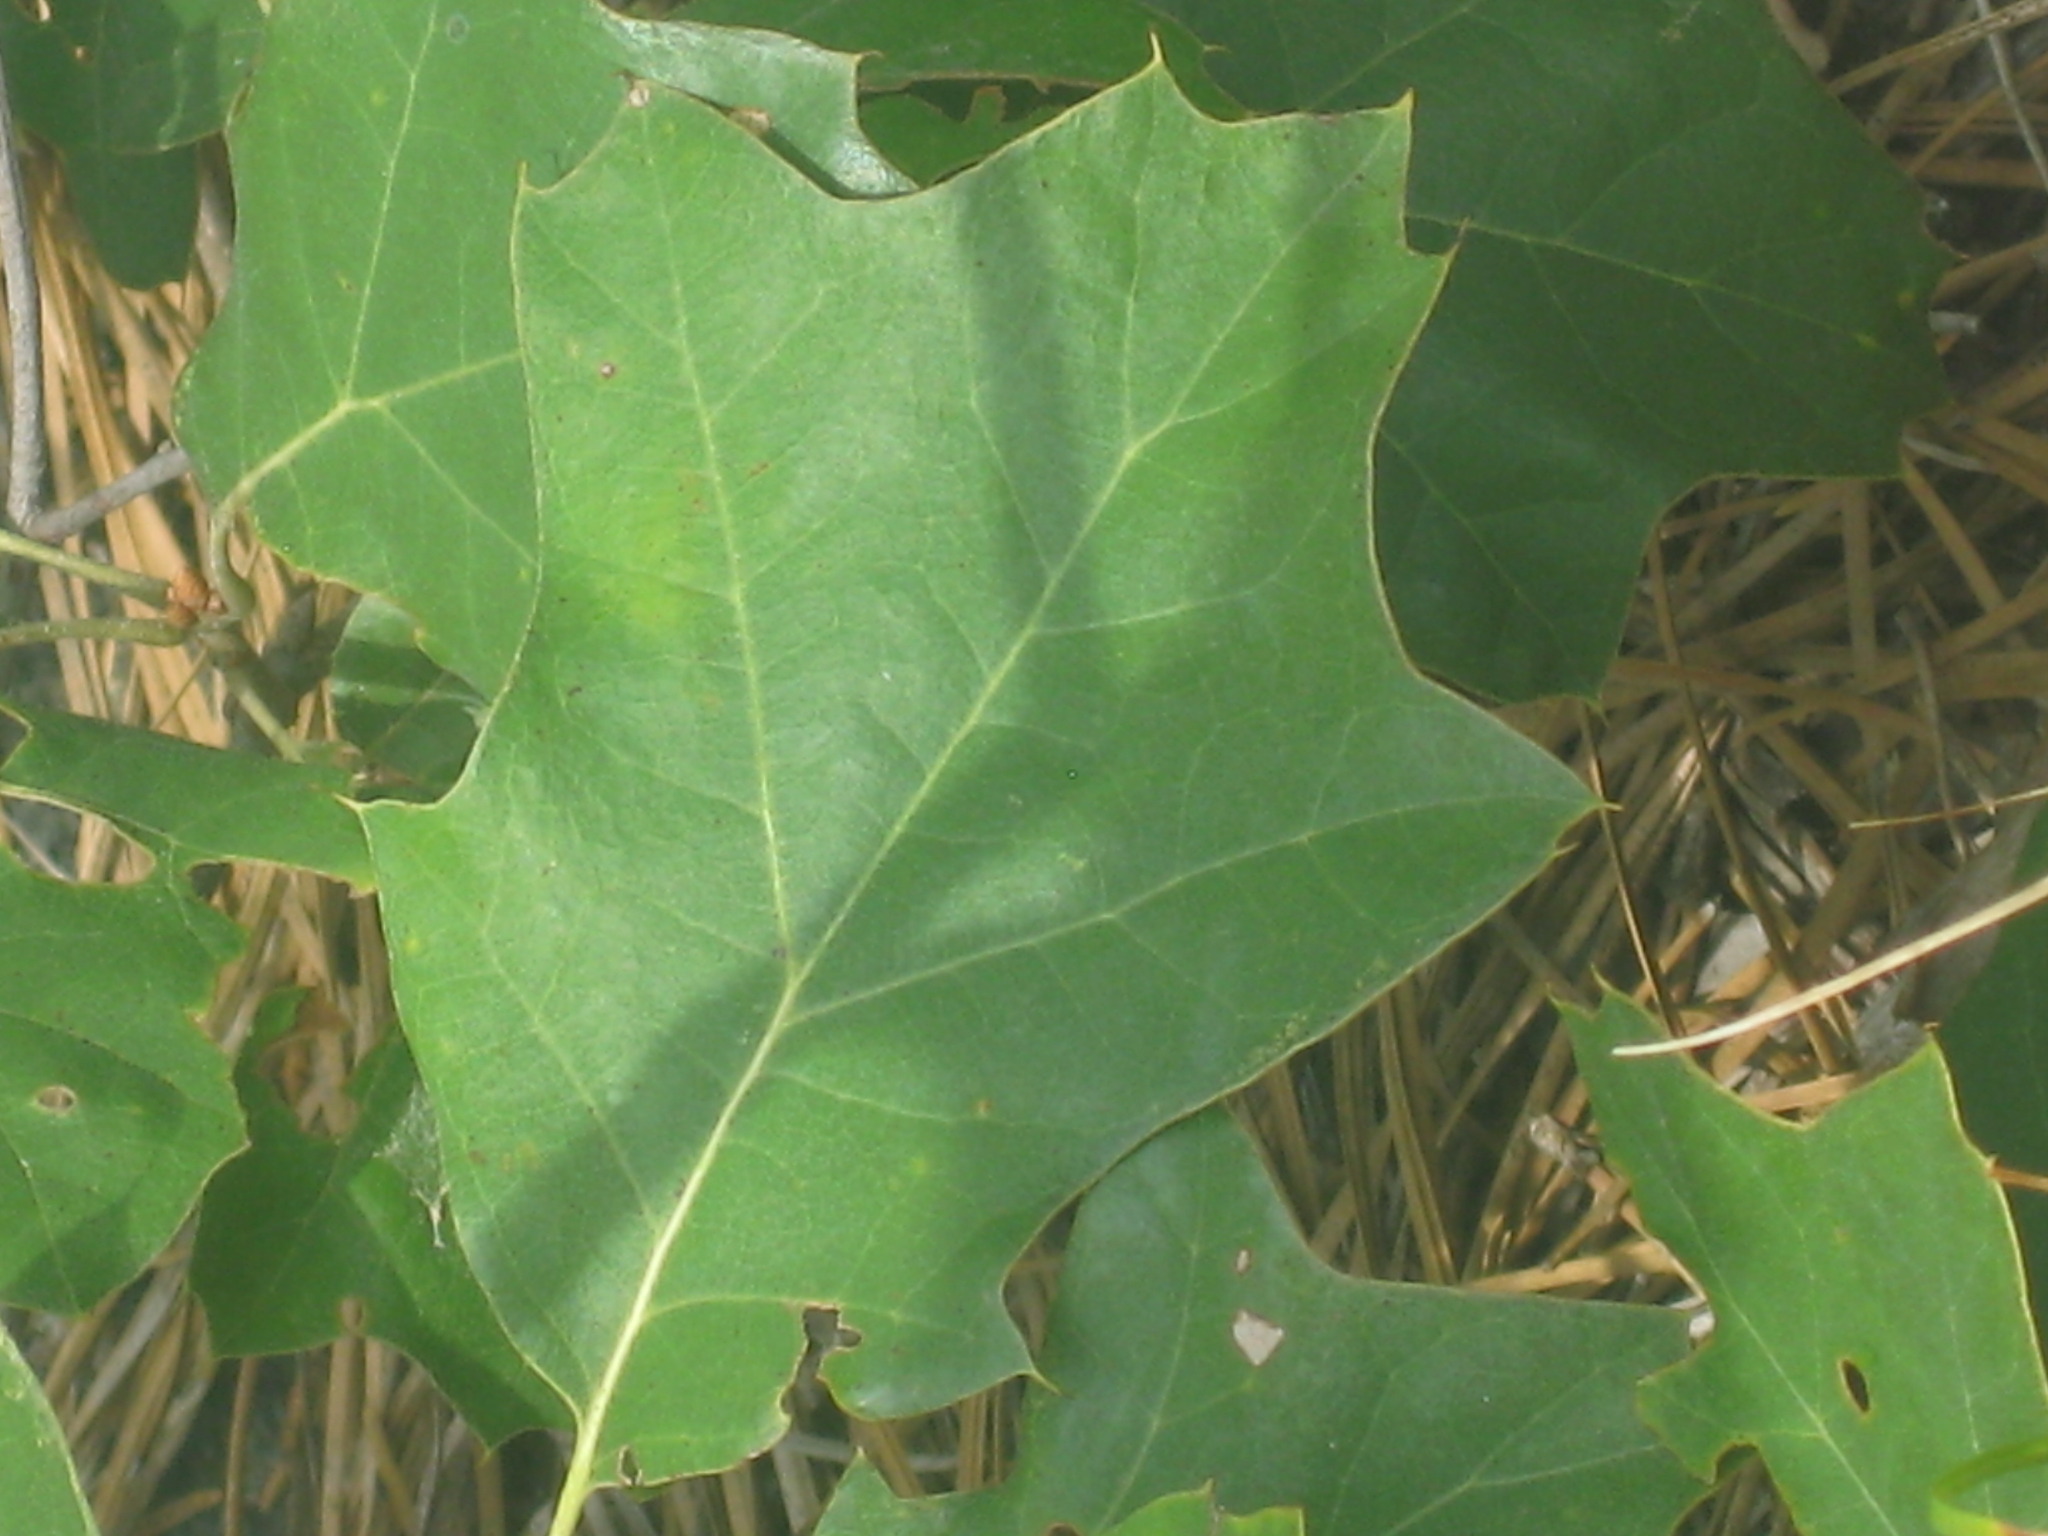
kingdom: Plantae
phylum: Tracheophyta
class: Magnoliopsida
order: Fagales
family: Fagaceae
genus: Quercus
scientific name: Quercus ilicifolia
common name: Bear oak
